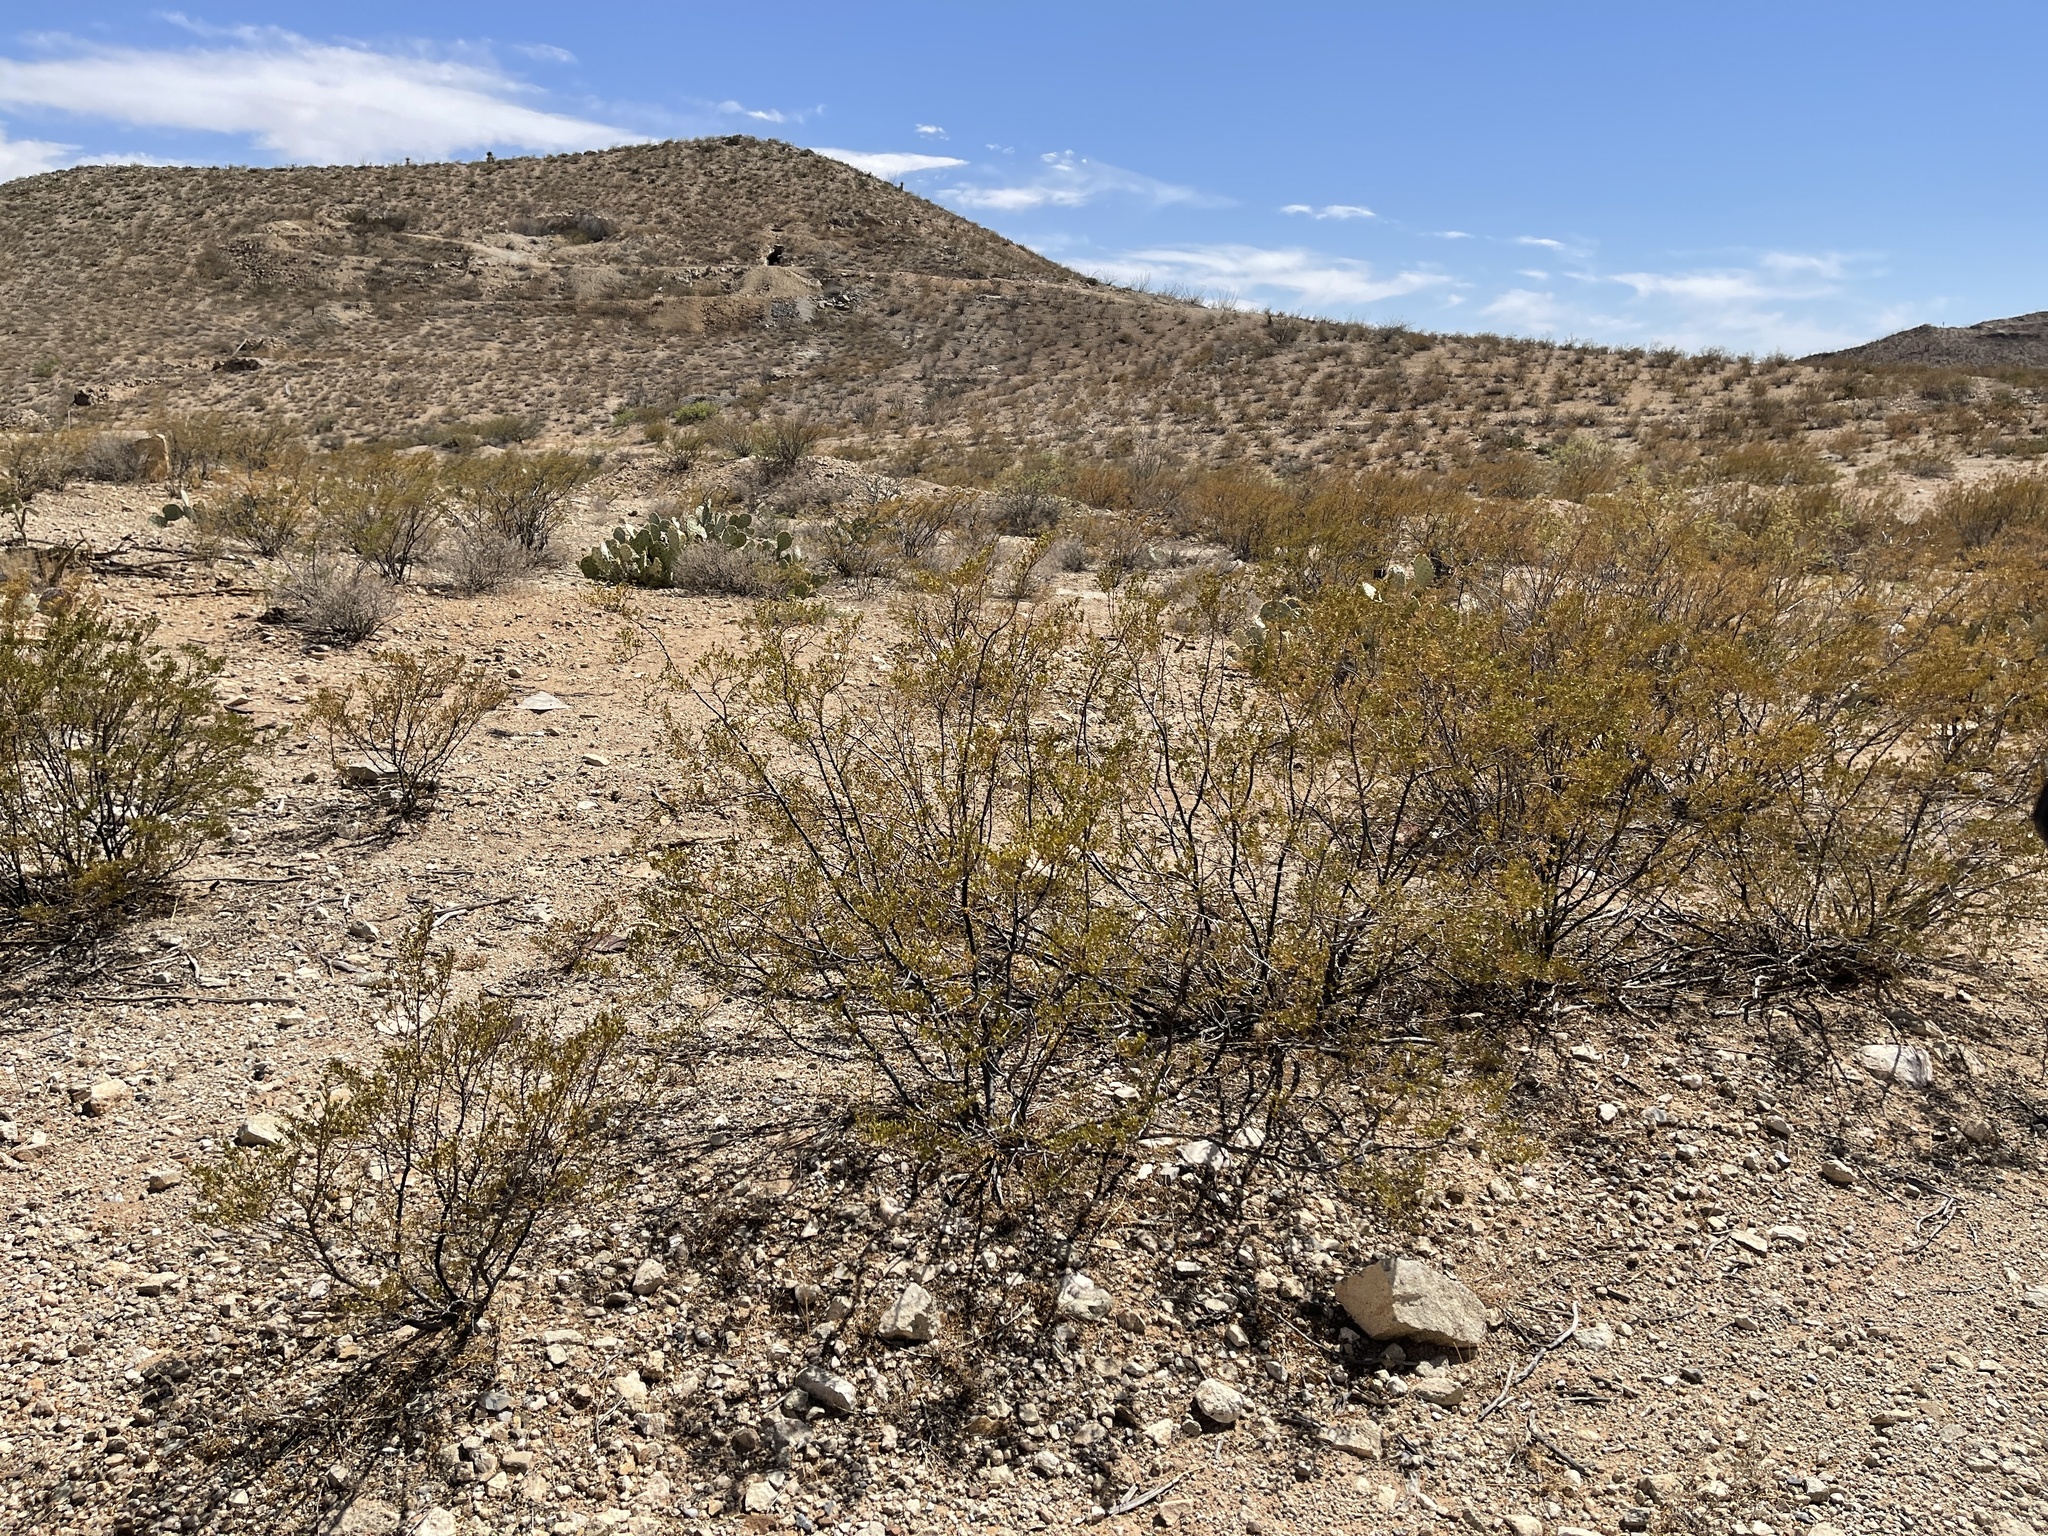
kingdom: Plantae
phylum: Tracheophyta
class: Magnoliopsida
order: Zygophyllales
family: Zygophyllaceae
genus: Larrea
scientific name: Larrea tridentata
